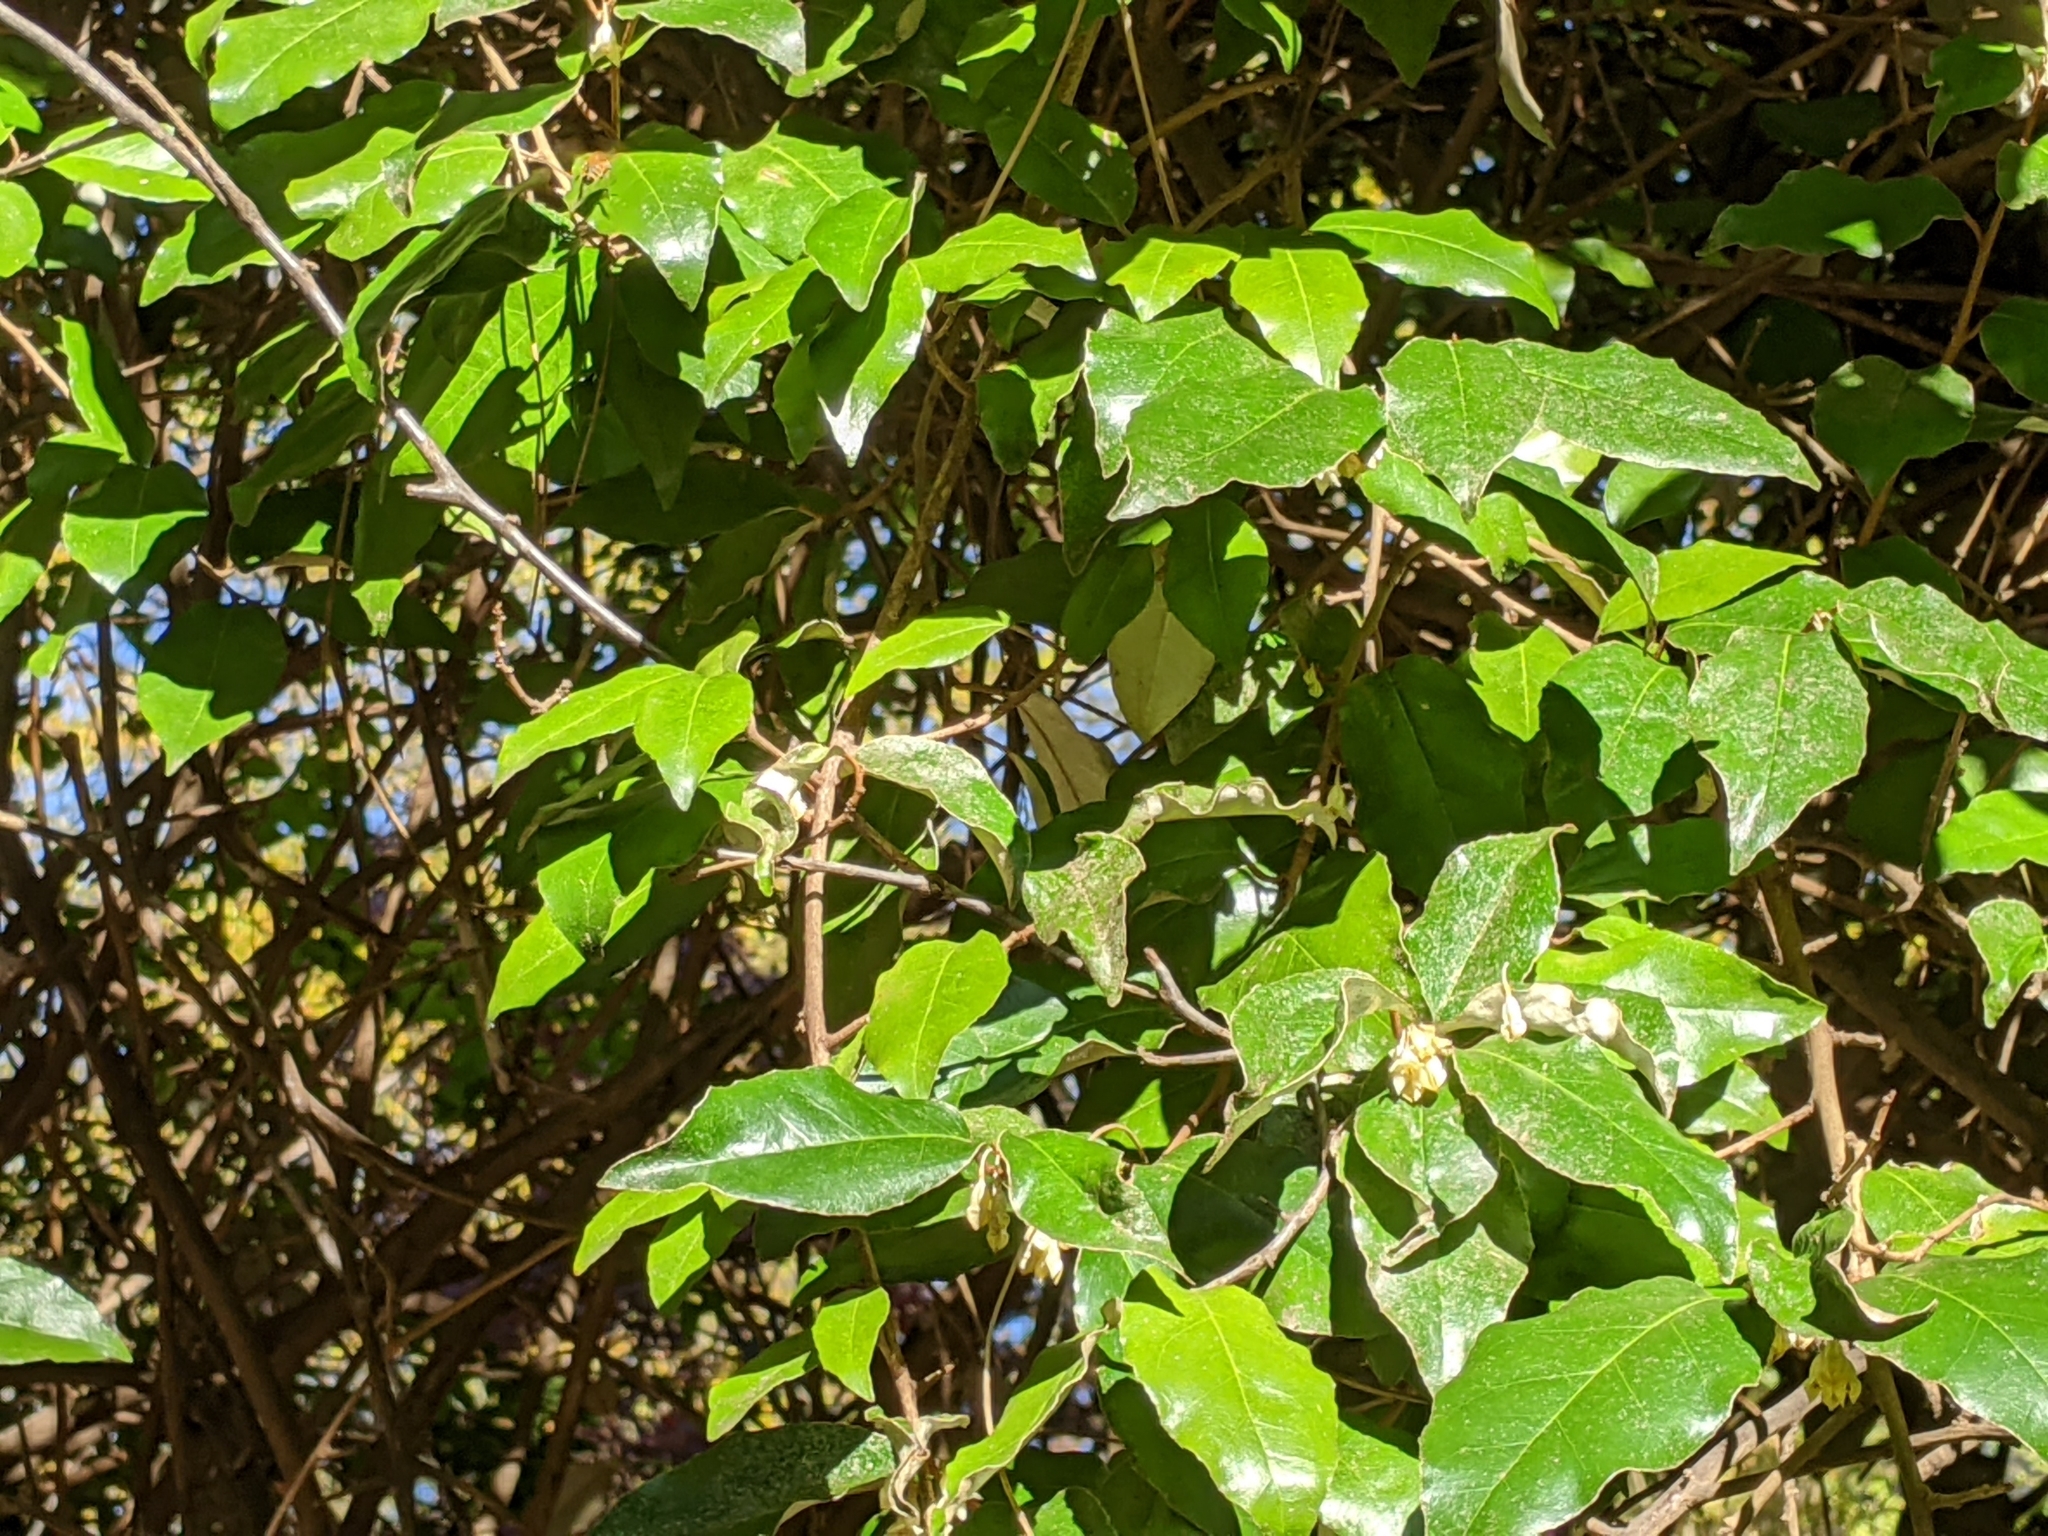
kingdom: Plantae
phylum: Tracheophyta
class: Magnoliopsida
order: Rosales
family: Elaeagnaceae
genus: Elaeagnus
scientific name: Elaeagnus pungens
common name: Spiny oleaster
